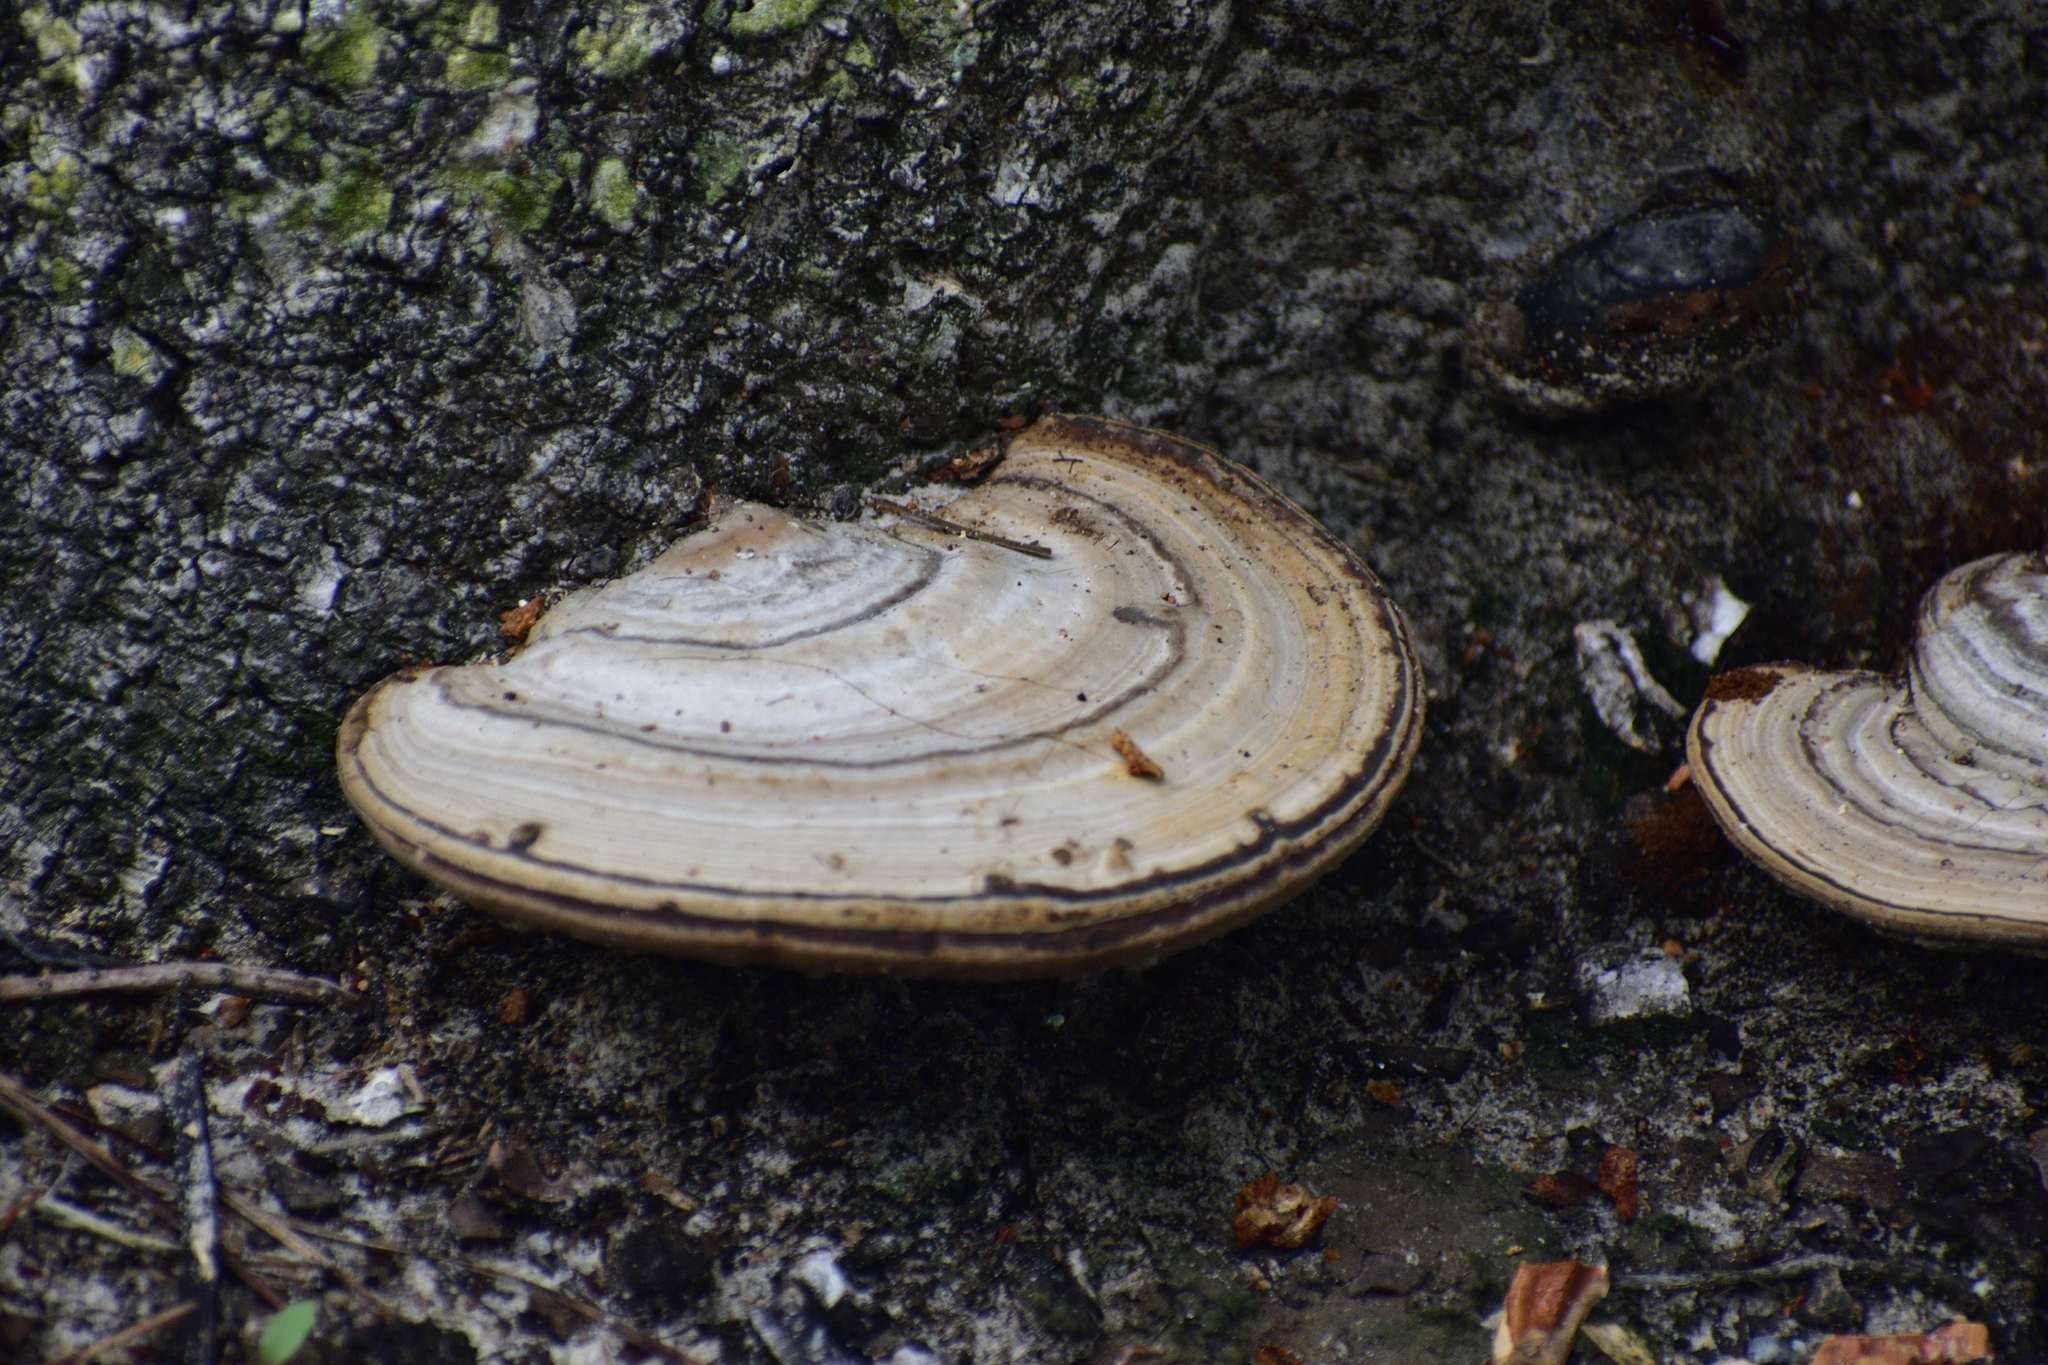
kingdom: Fungi
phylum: Basidiomycota
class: Agaricomycetes
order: Polyporales
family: Polyporaceae
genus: Fomes
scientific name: Fomes fasciatus
